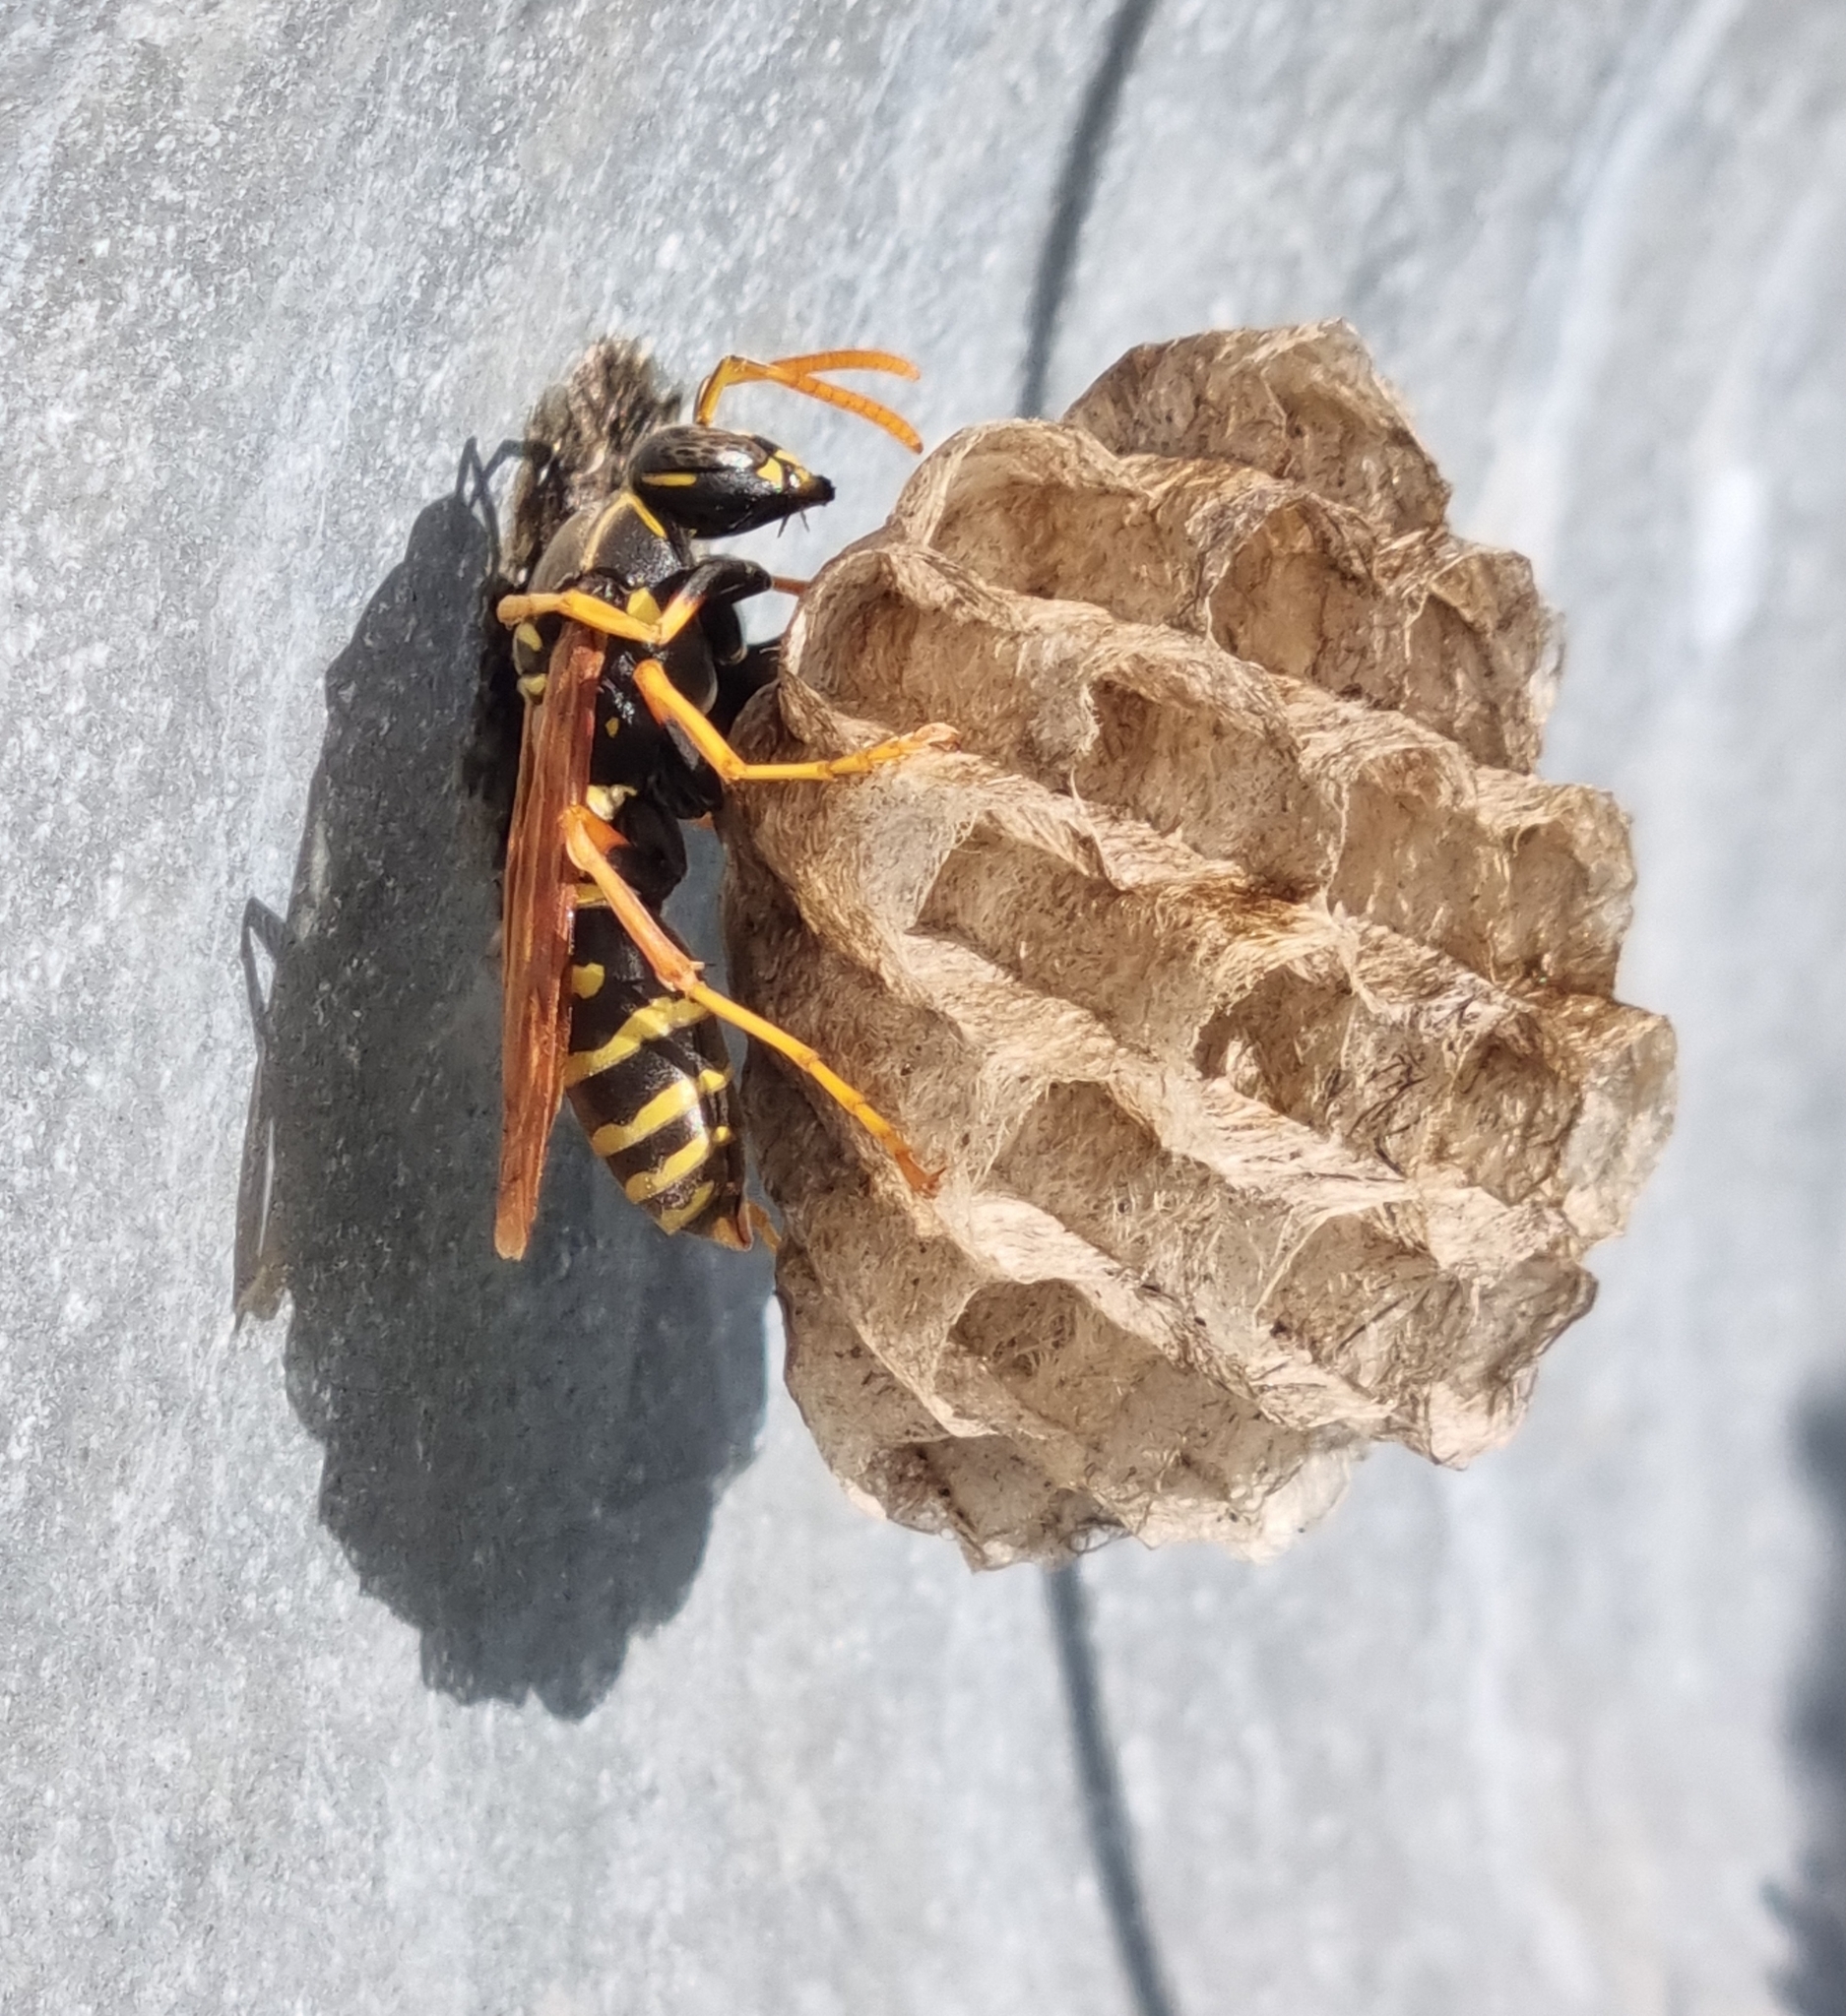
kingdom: Animalia
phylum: Arthropoda
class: Insecta
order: Hymenoptera
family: Eumenidae
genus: Polistes
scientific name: Polistes chinensis
